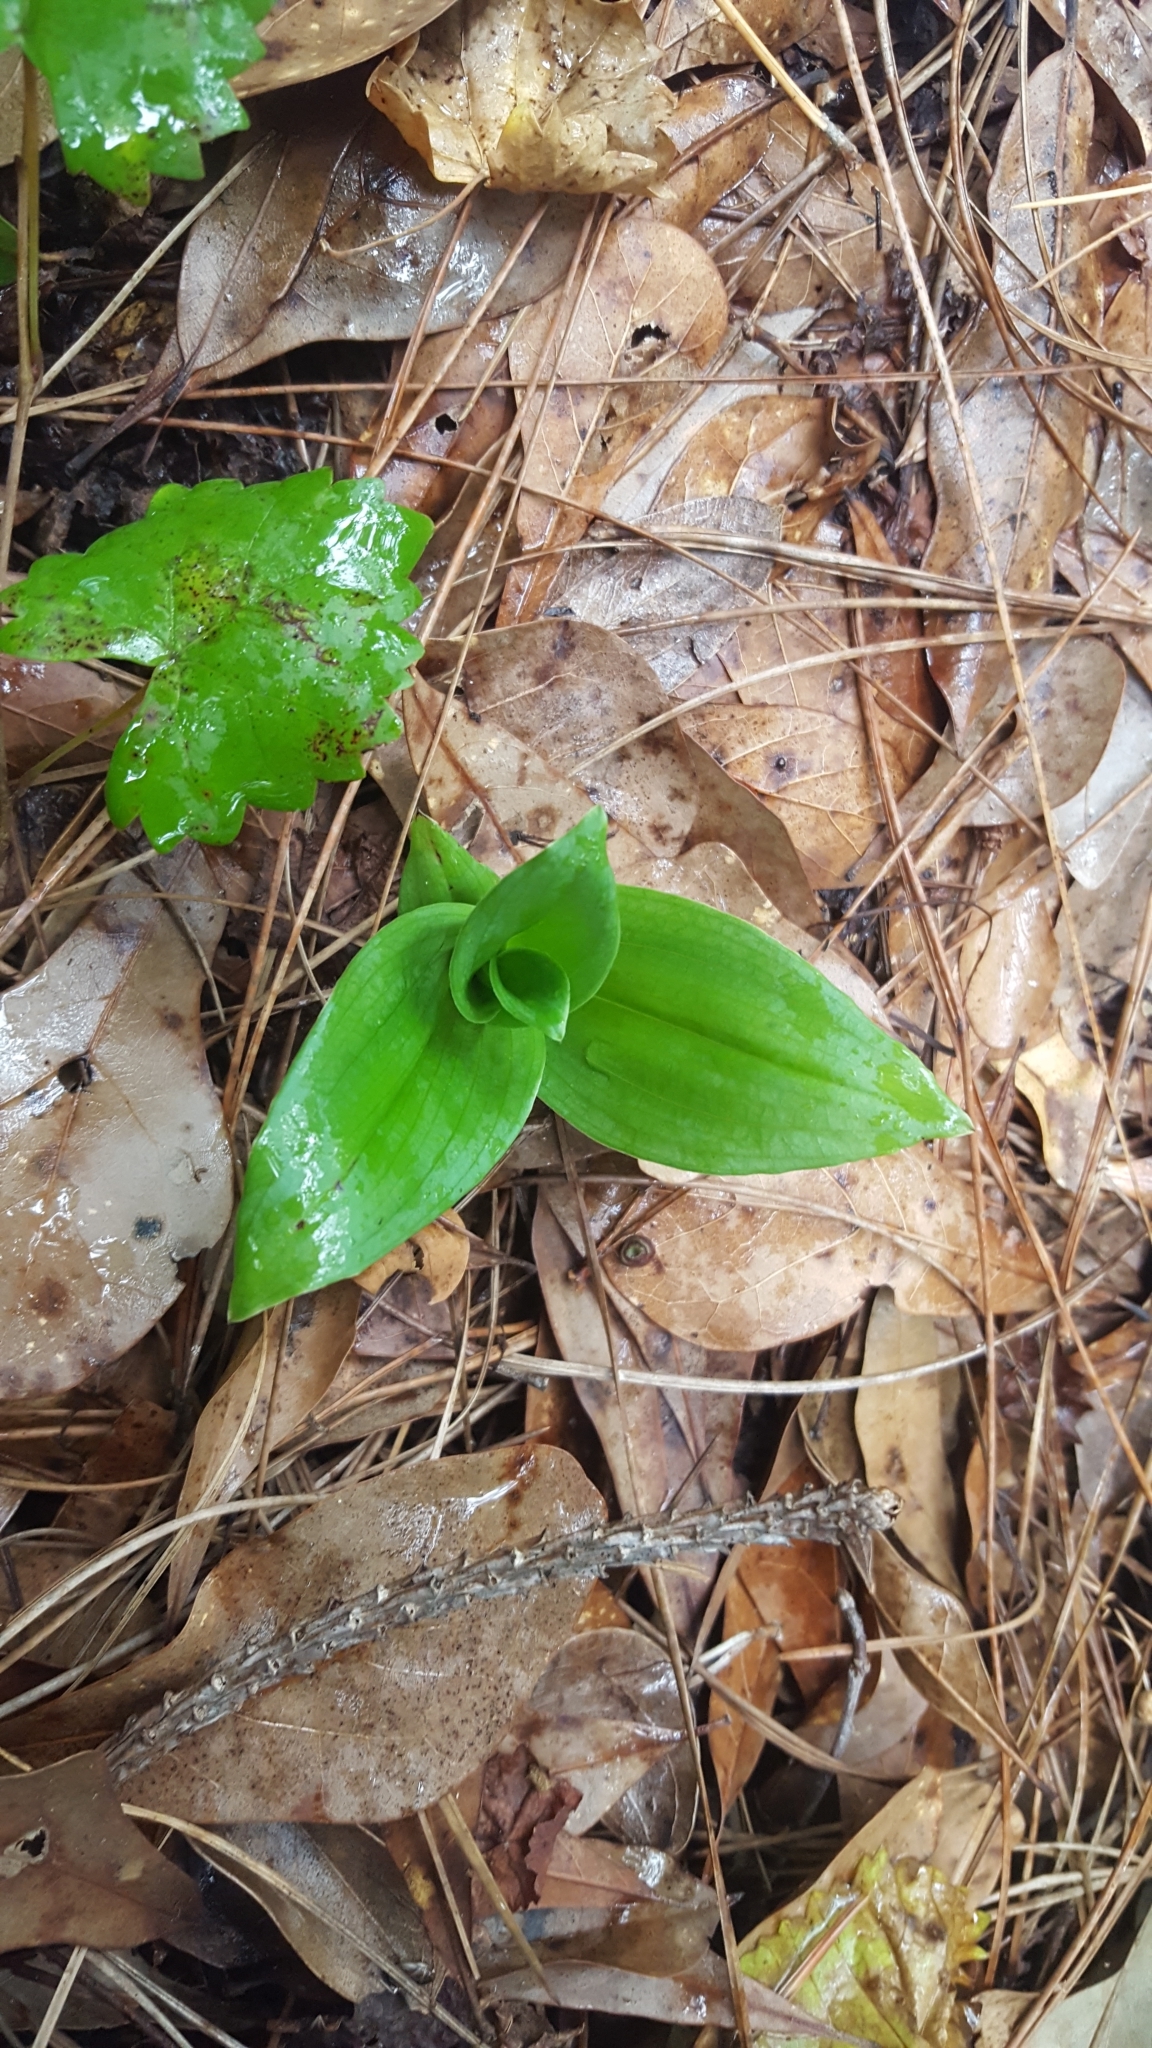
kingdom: Plantae
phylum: Tracheophyta
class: Liliopsida
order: Asparagales
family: Orchidaceae
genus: Habenaria
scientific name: Habenaria floribunda
